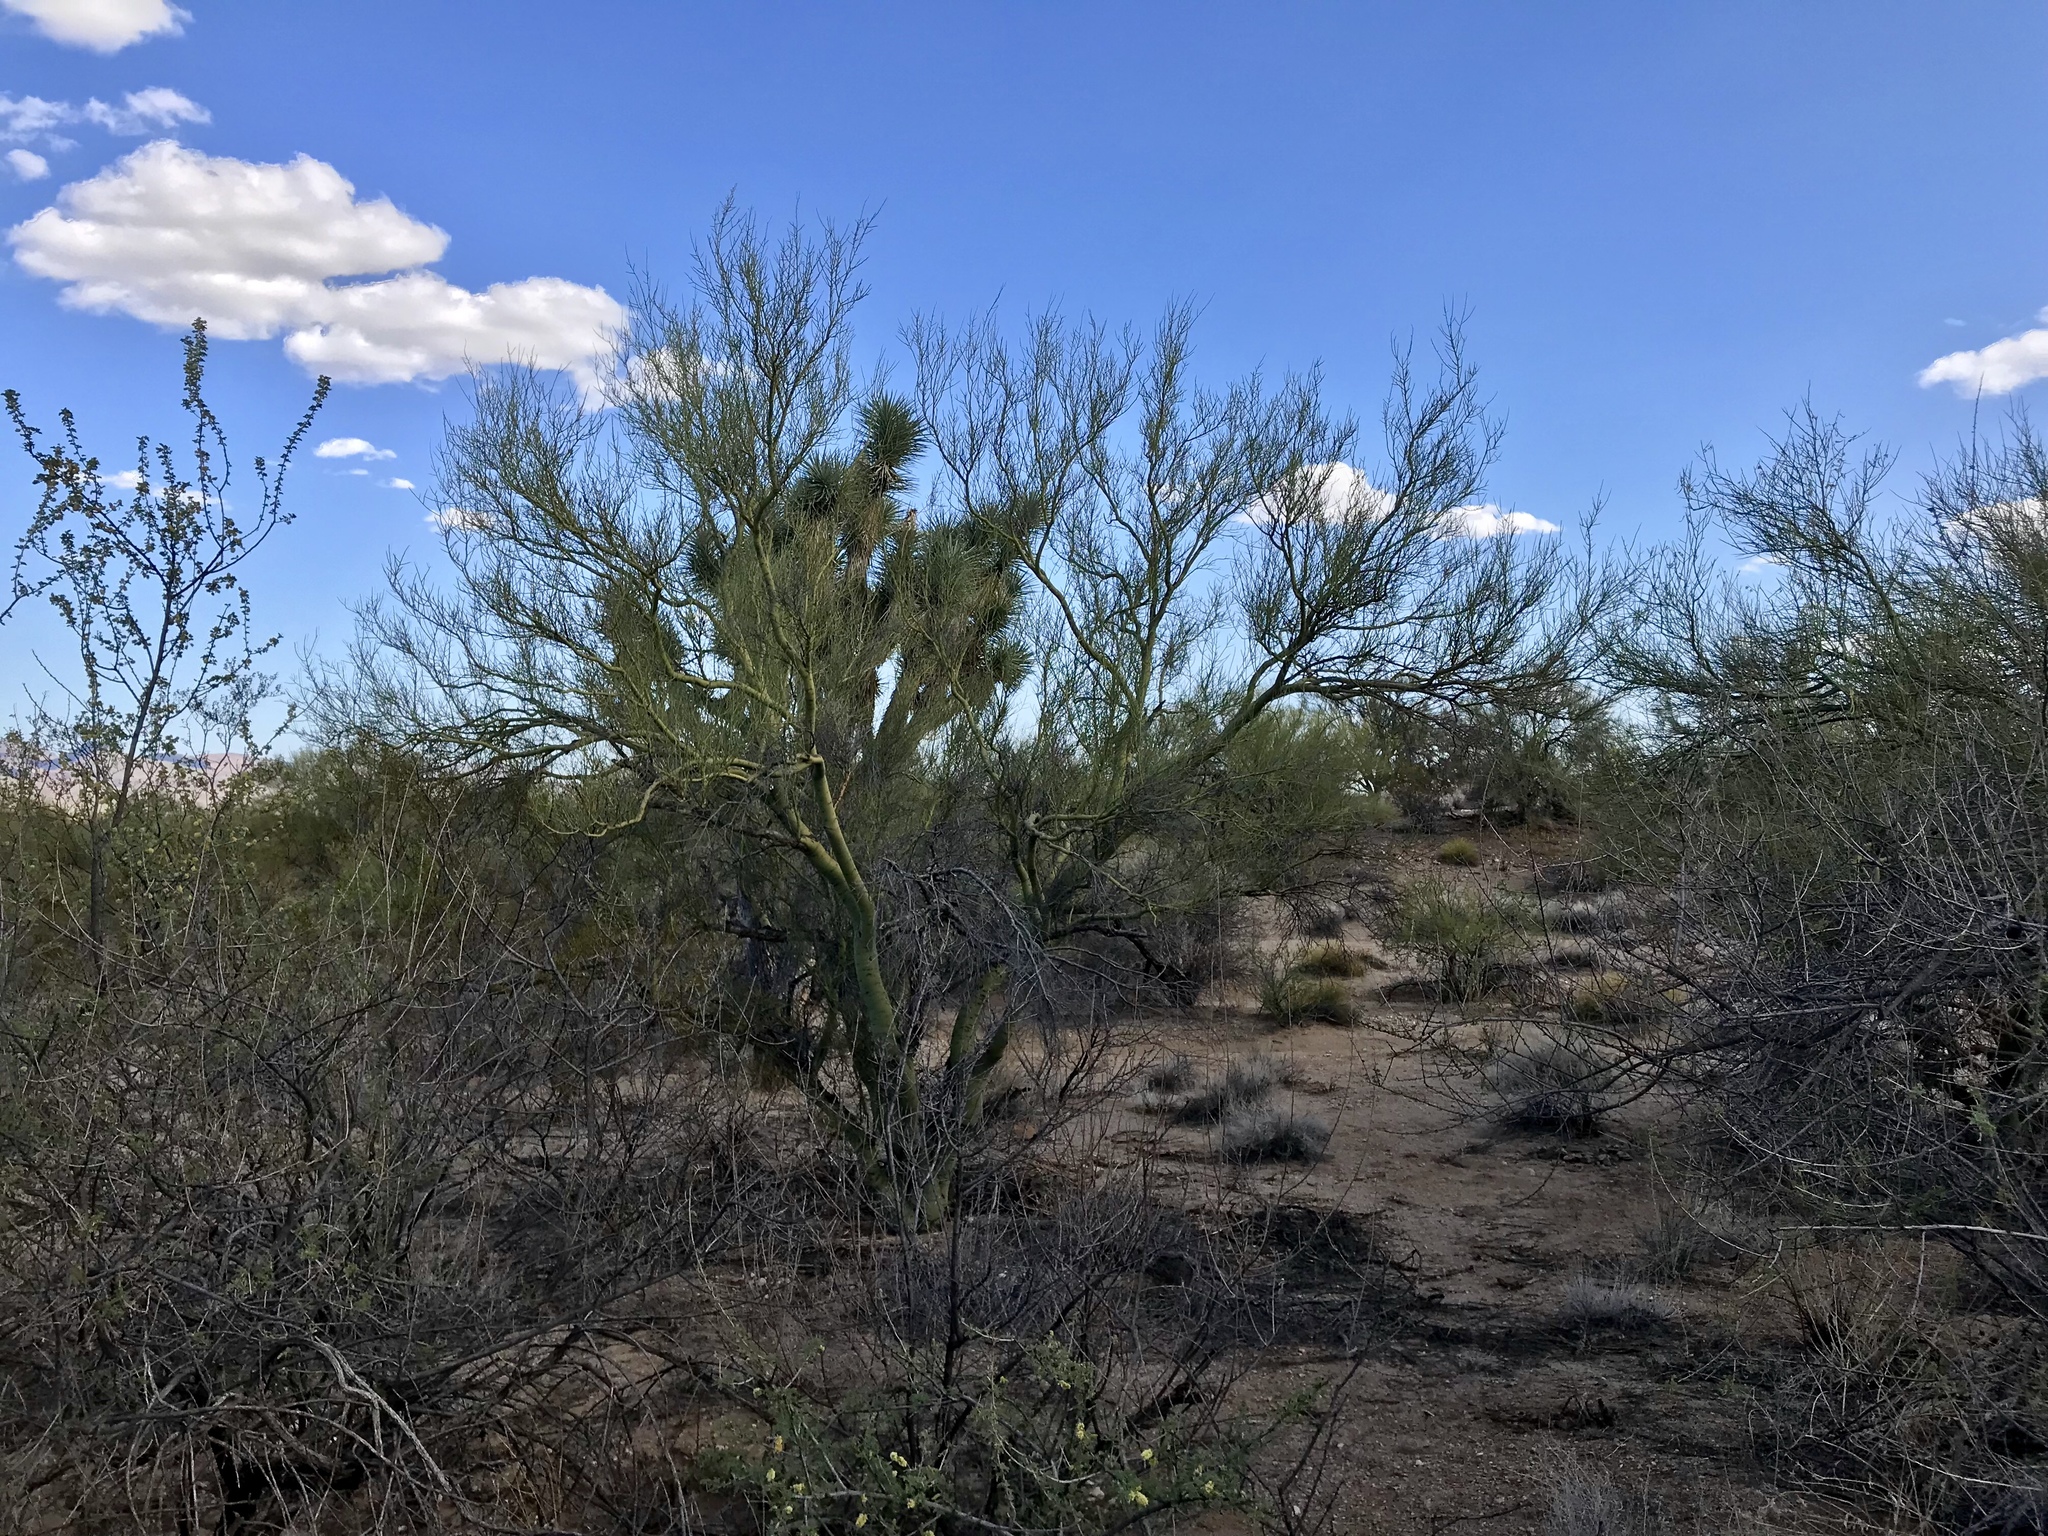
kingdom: Plantae
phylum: Tracheophyta
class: Magnoliopsida
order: Fabales
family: Fabaceae
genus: Parkinsonia
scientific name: Parkinsonia microphylla
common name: Yellow paloverde
